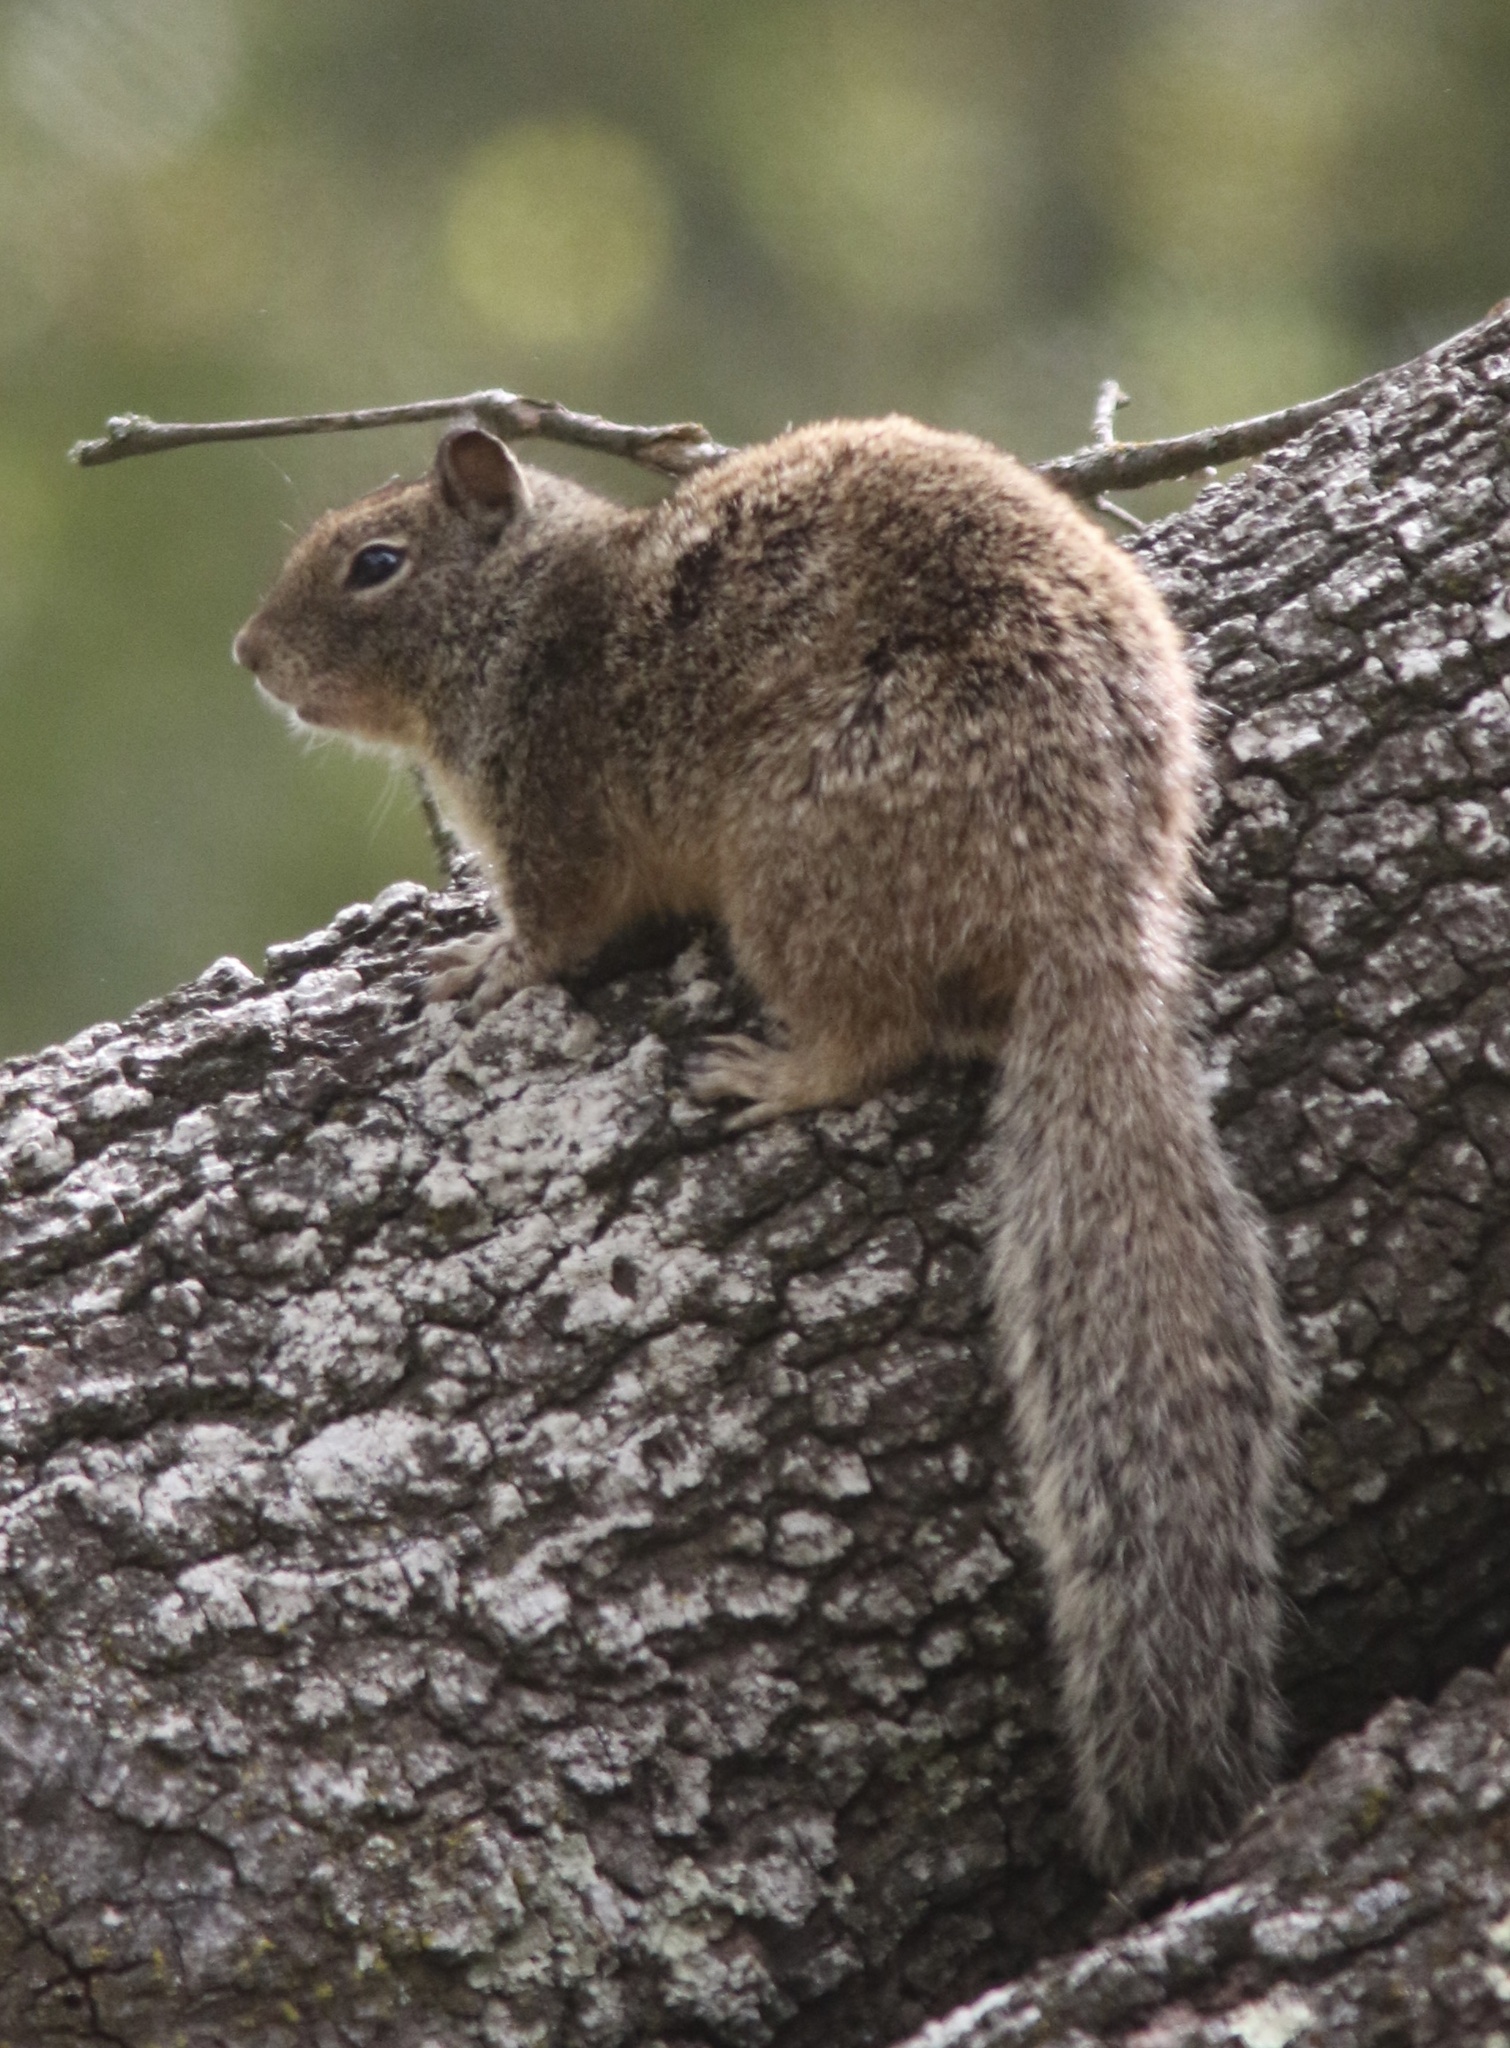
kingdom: Animalia
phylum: Chordata
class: Mammalia
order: Rodentia
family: Sciuridae
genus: Otospermophilus
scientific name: Otospermophilus beecheyi
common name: California ground squirrel
